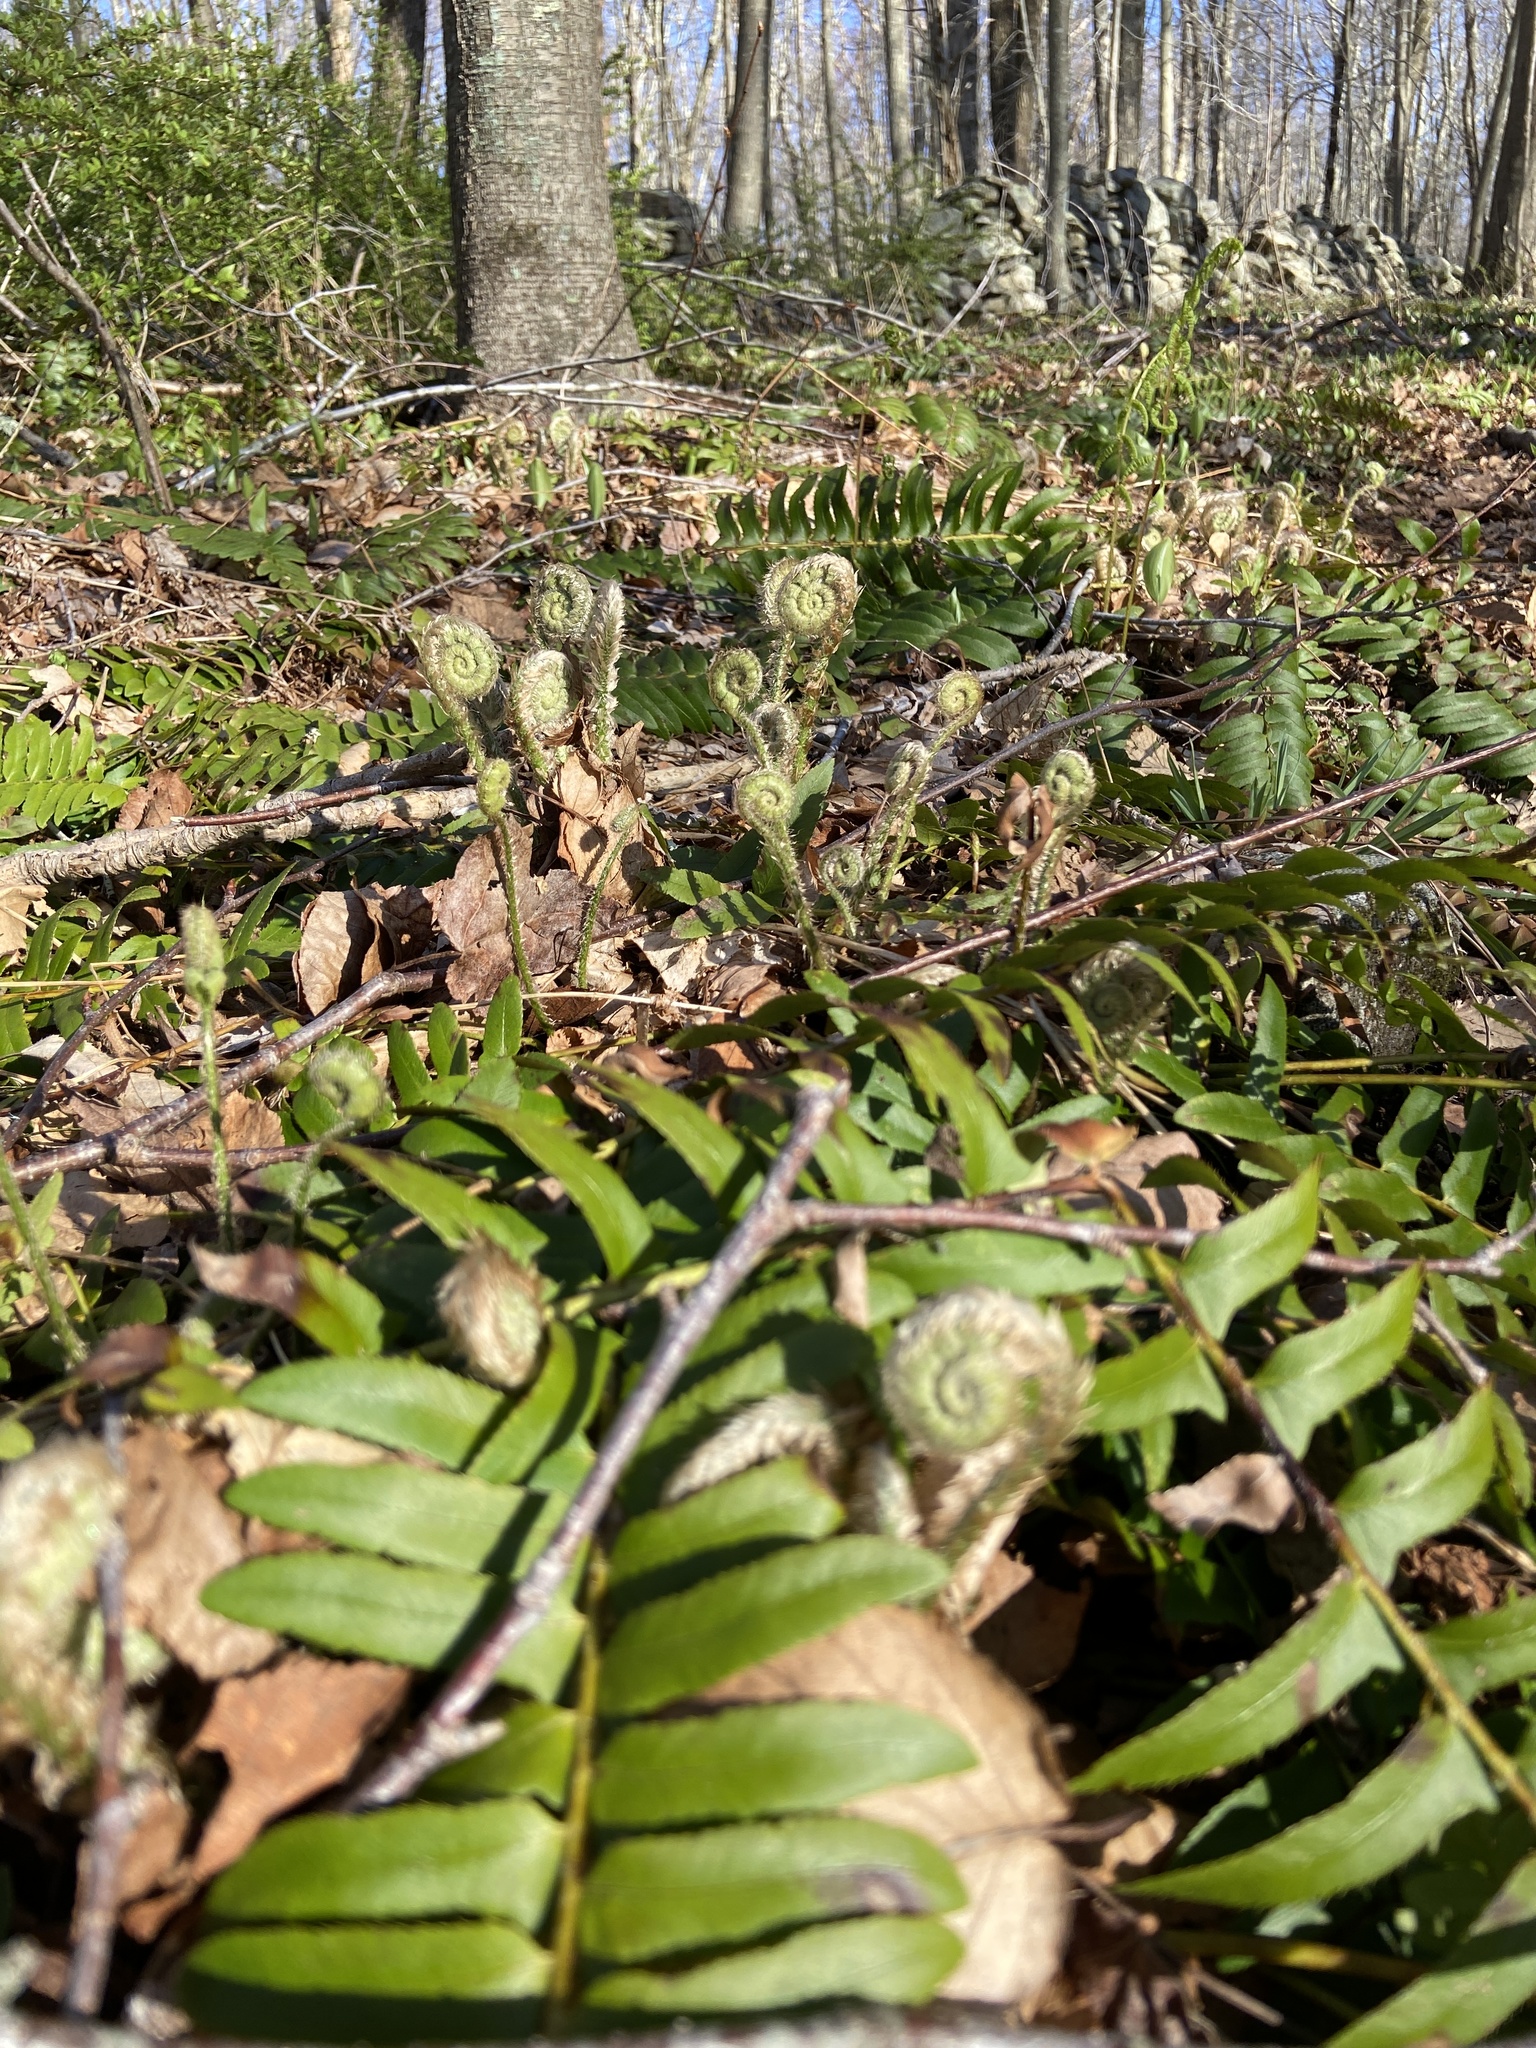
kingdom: Plantae
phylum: Tracheophyta
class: Polypodiopsida
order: Polypodiales
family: Dryopteridaceae
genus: Polystichum
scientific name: Polystichum acrostichoides
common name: Christmas fern
